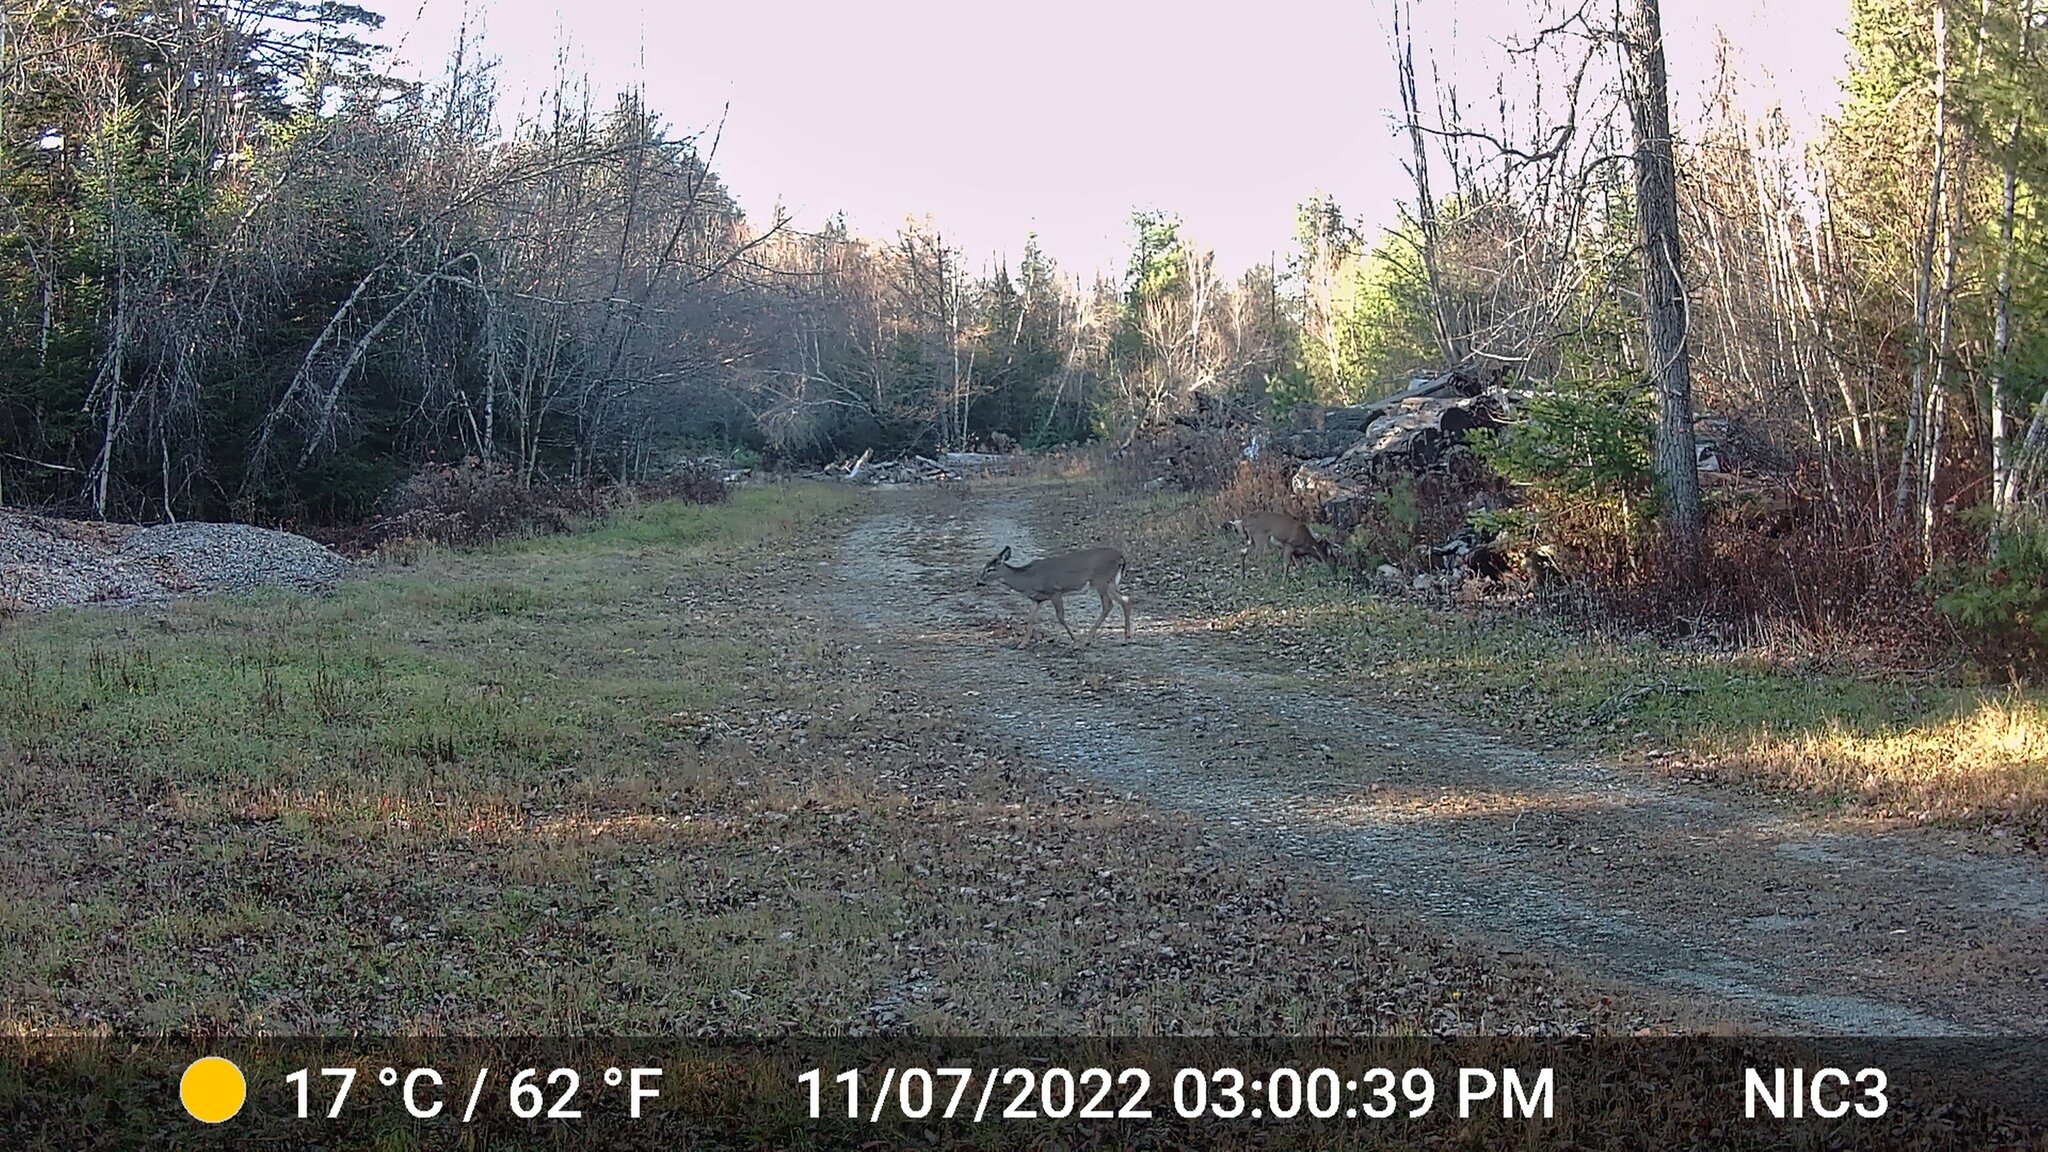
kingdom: Animalia
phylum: Chordata
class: Mammalia
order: Artiodactyla
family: Cervidae
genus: Odocoileus
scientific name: Odocoileus virginianus
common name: White-tailed deer
